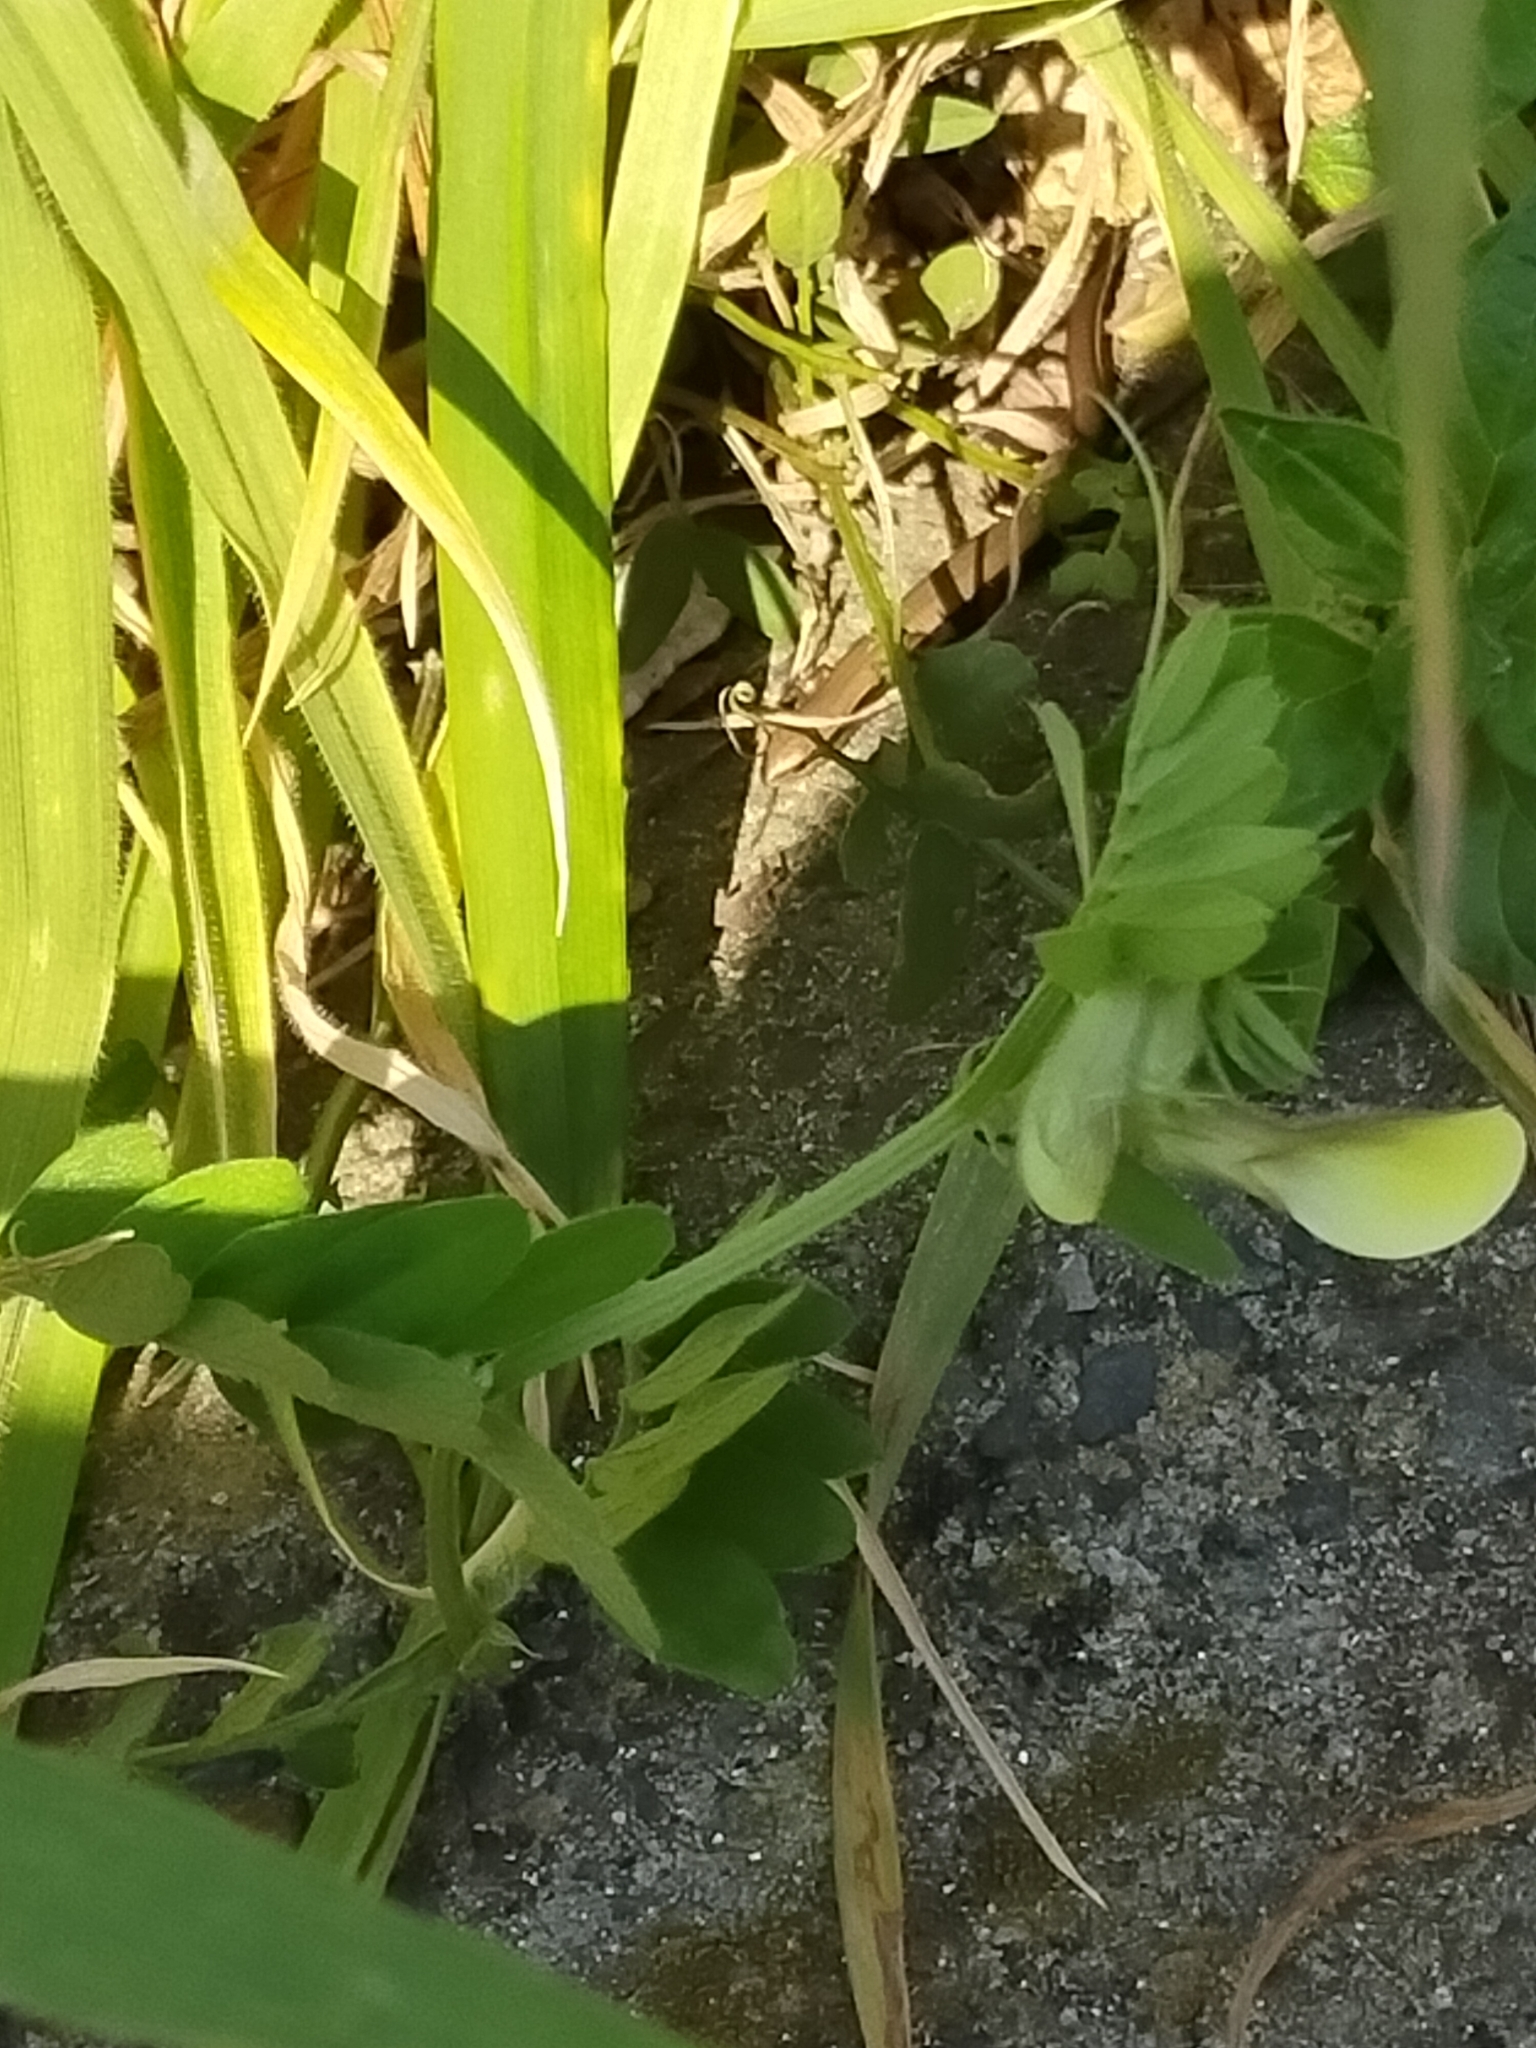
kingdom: Animalia
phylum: Chordata
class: Squamata
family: Scincidae
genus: Ablepharus
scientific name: Ablepharus kitaibelii
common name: Juniper skink
